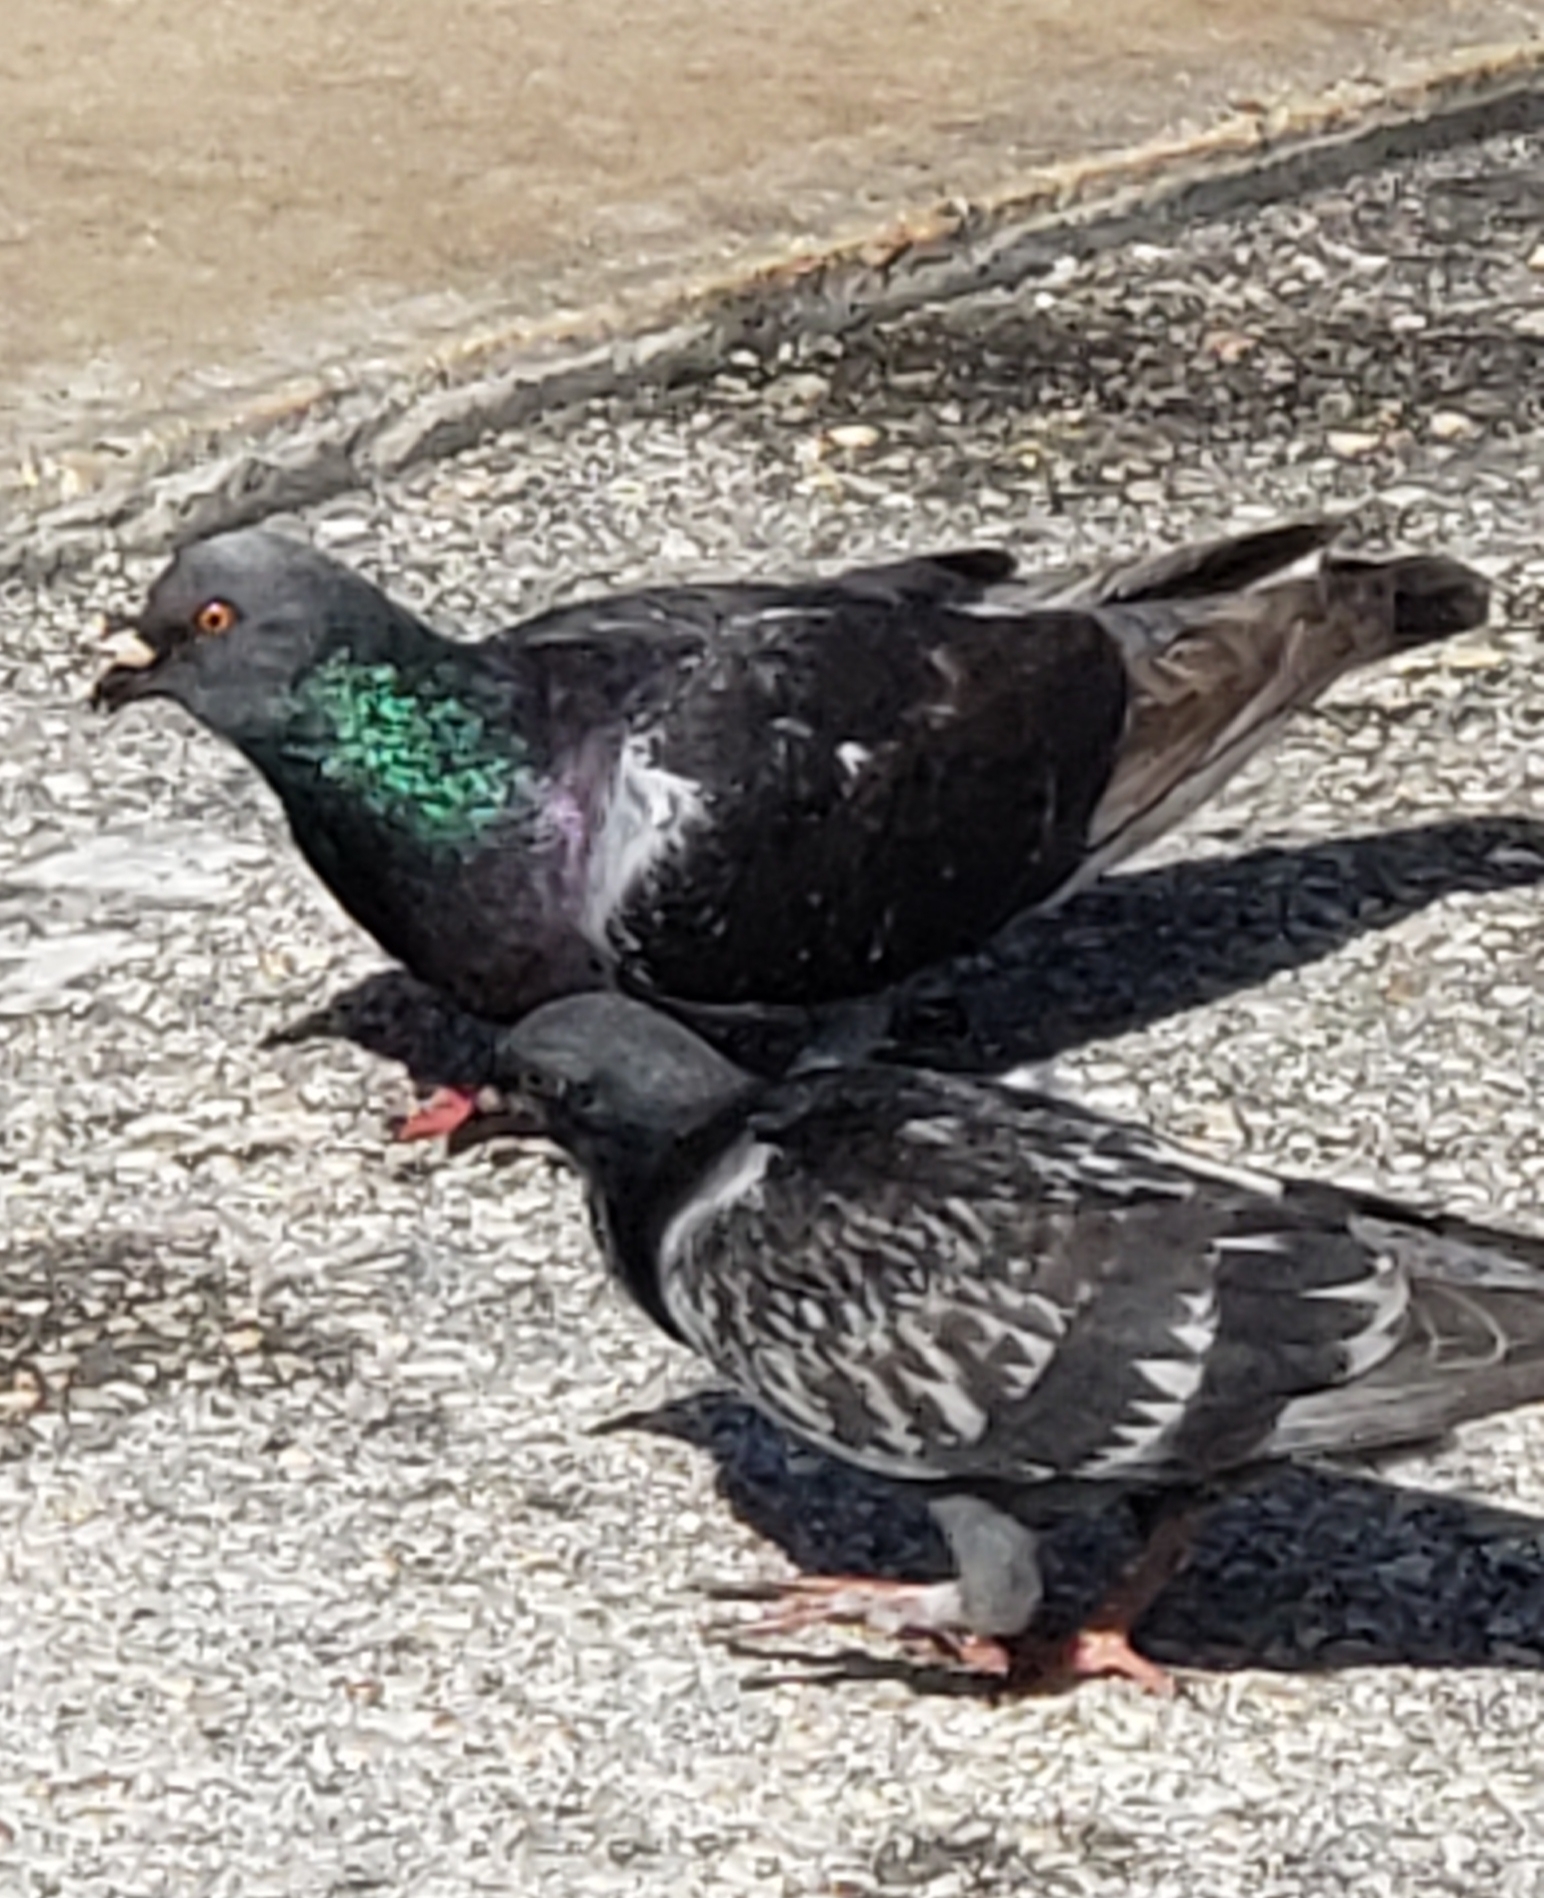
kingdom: Animalia
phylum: Chordata
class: Aves
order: Columbiformes
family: Columbidae
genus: Columba
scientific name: Columba livia
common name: Rock pigeon
